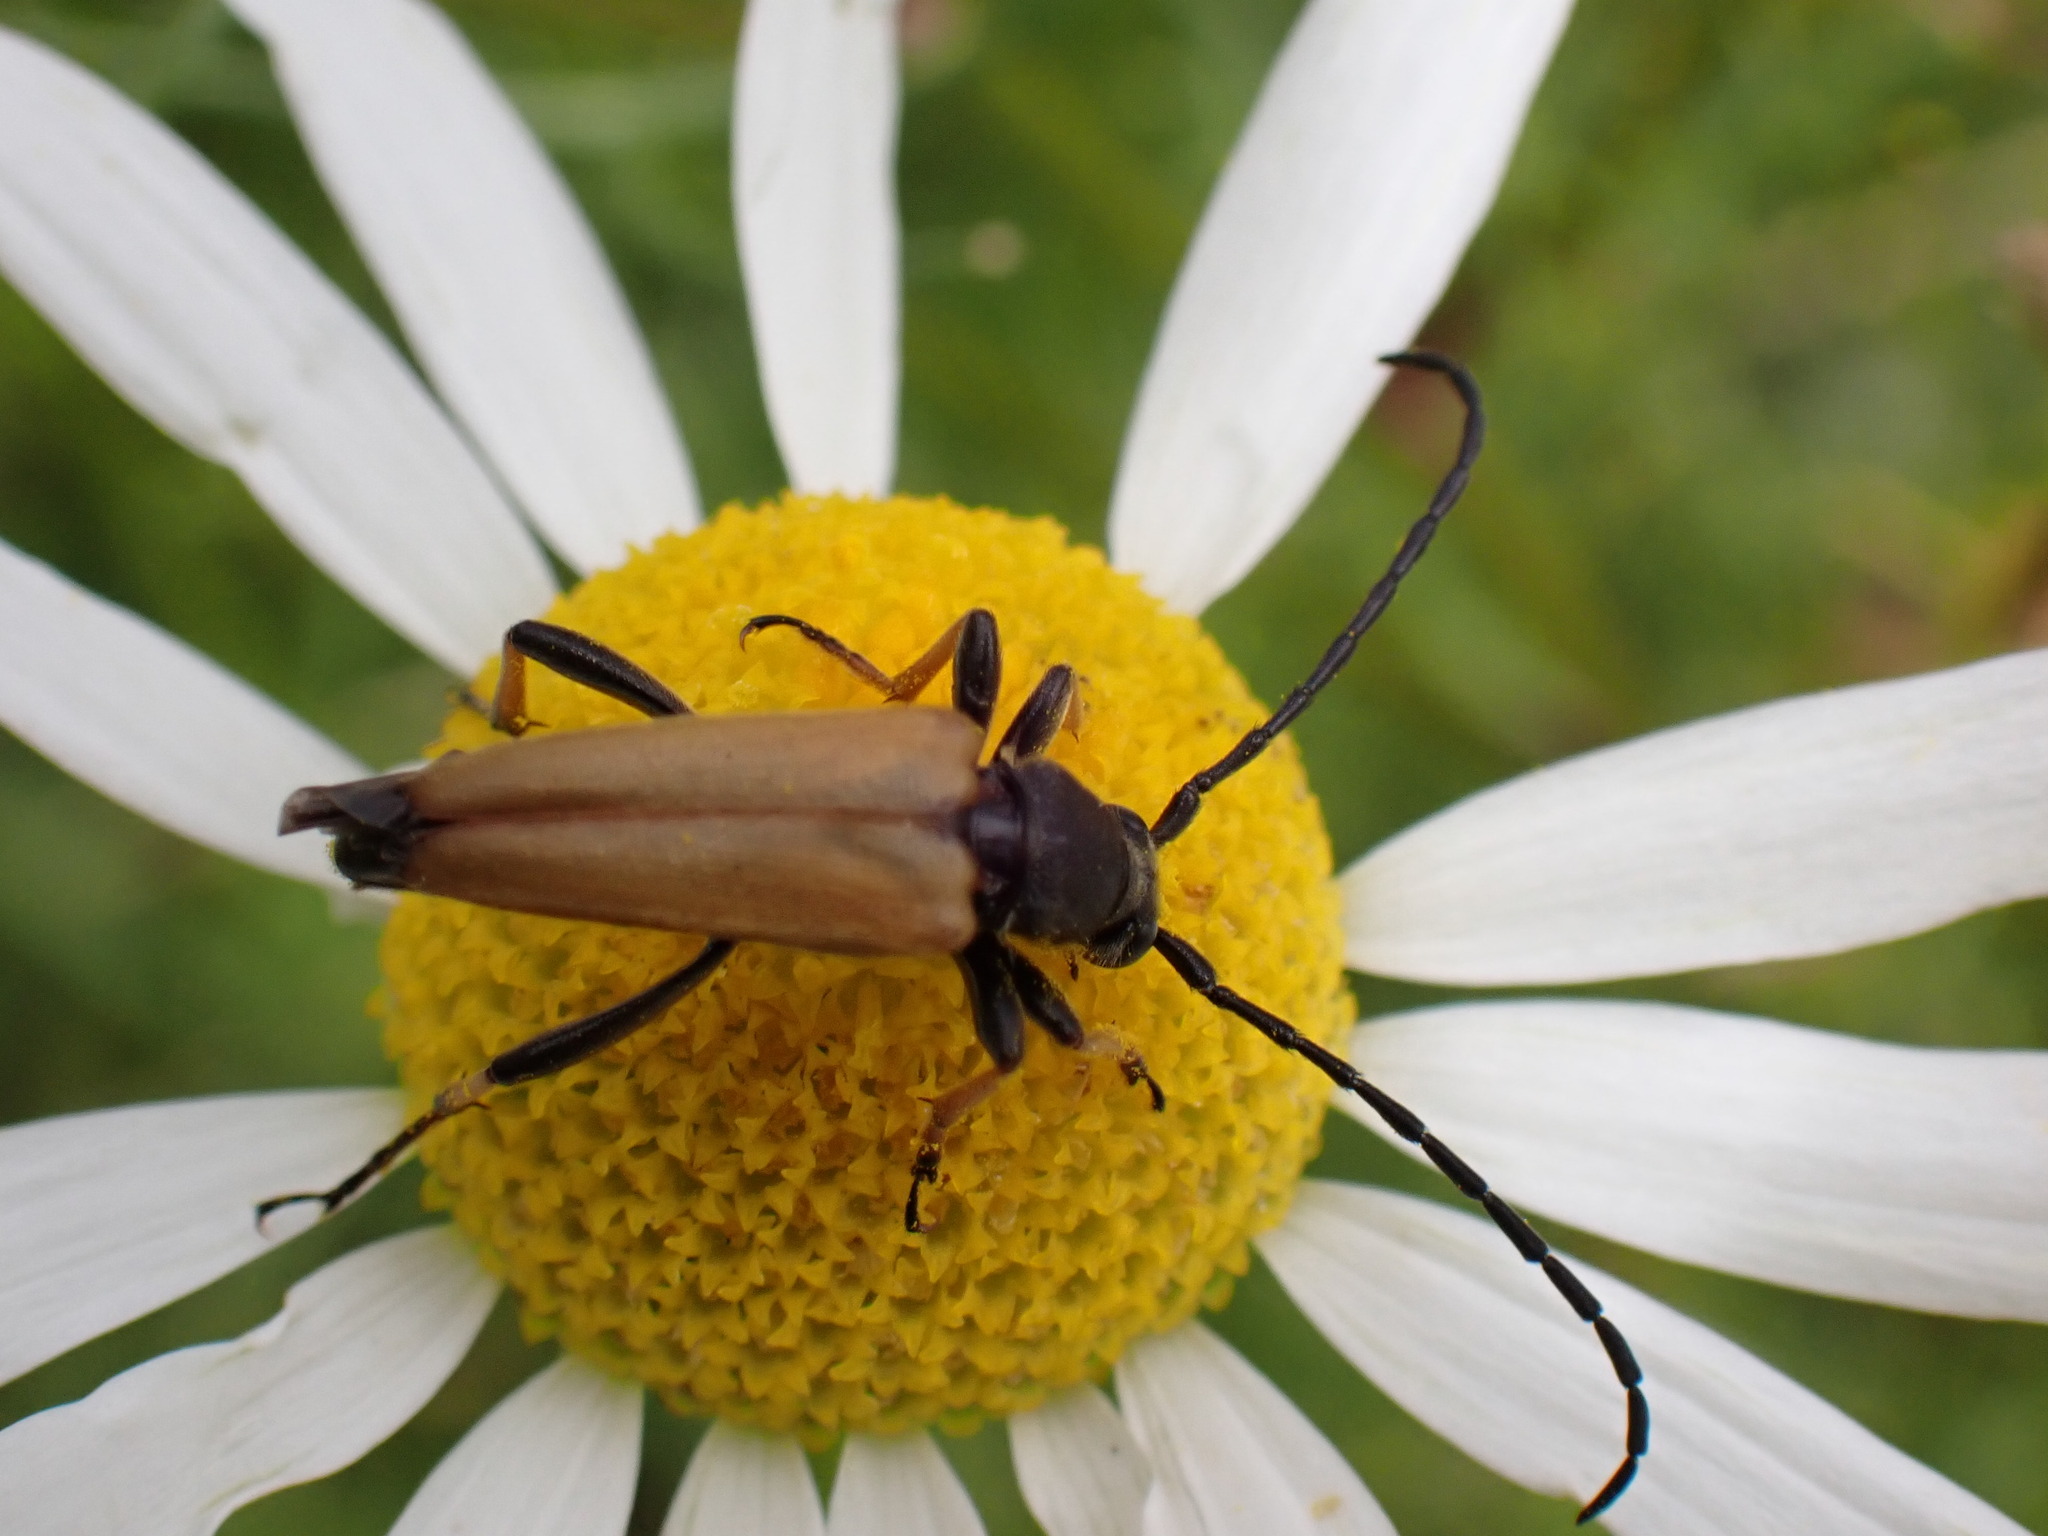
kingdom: Animalia
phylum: Arthropoda
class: Insecta
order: Coleoptera
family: Cerambycidae
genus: Stictoleptura
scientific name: Stictoleptura rubra
